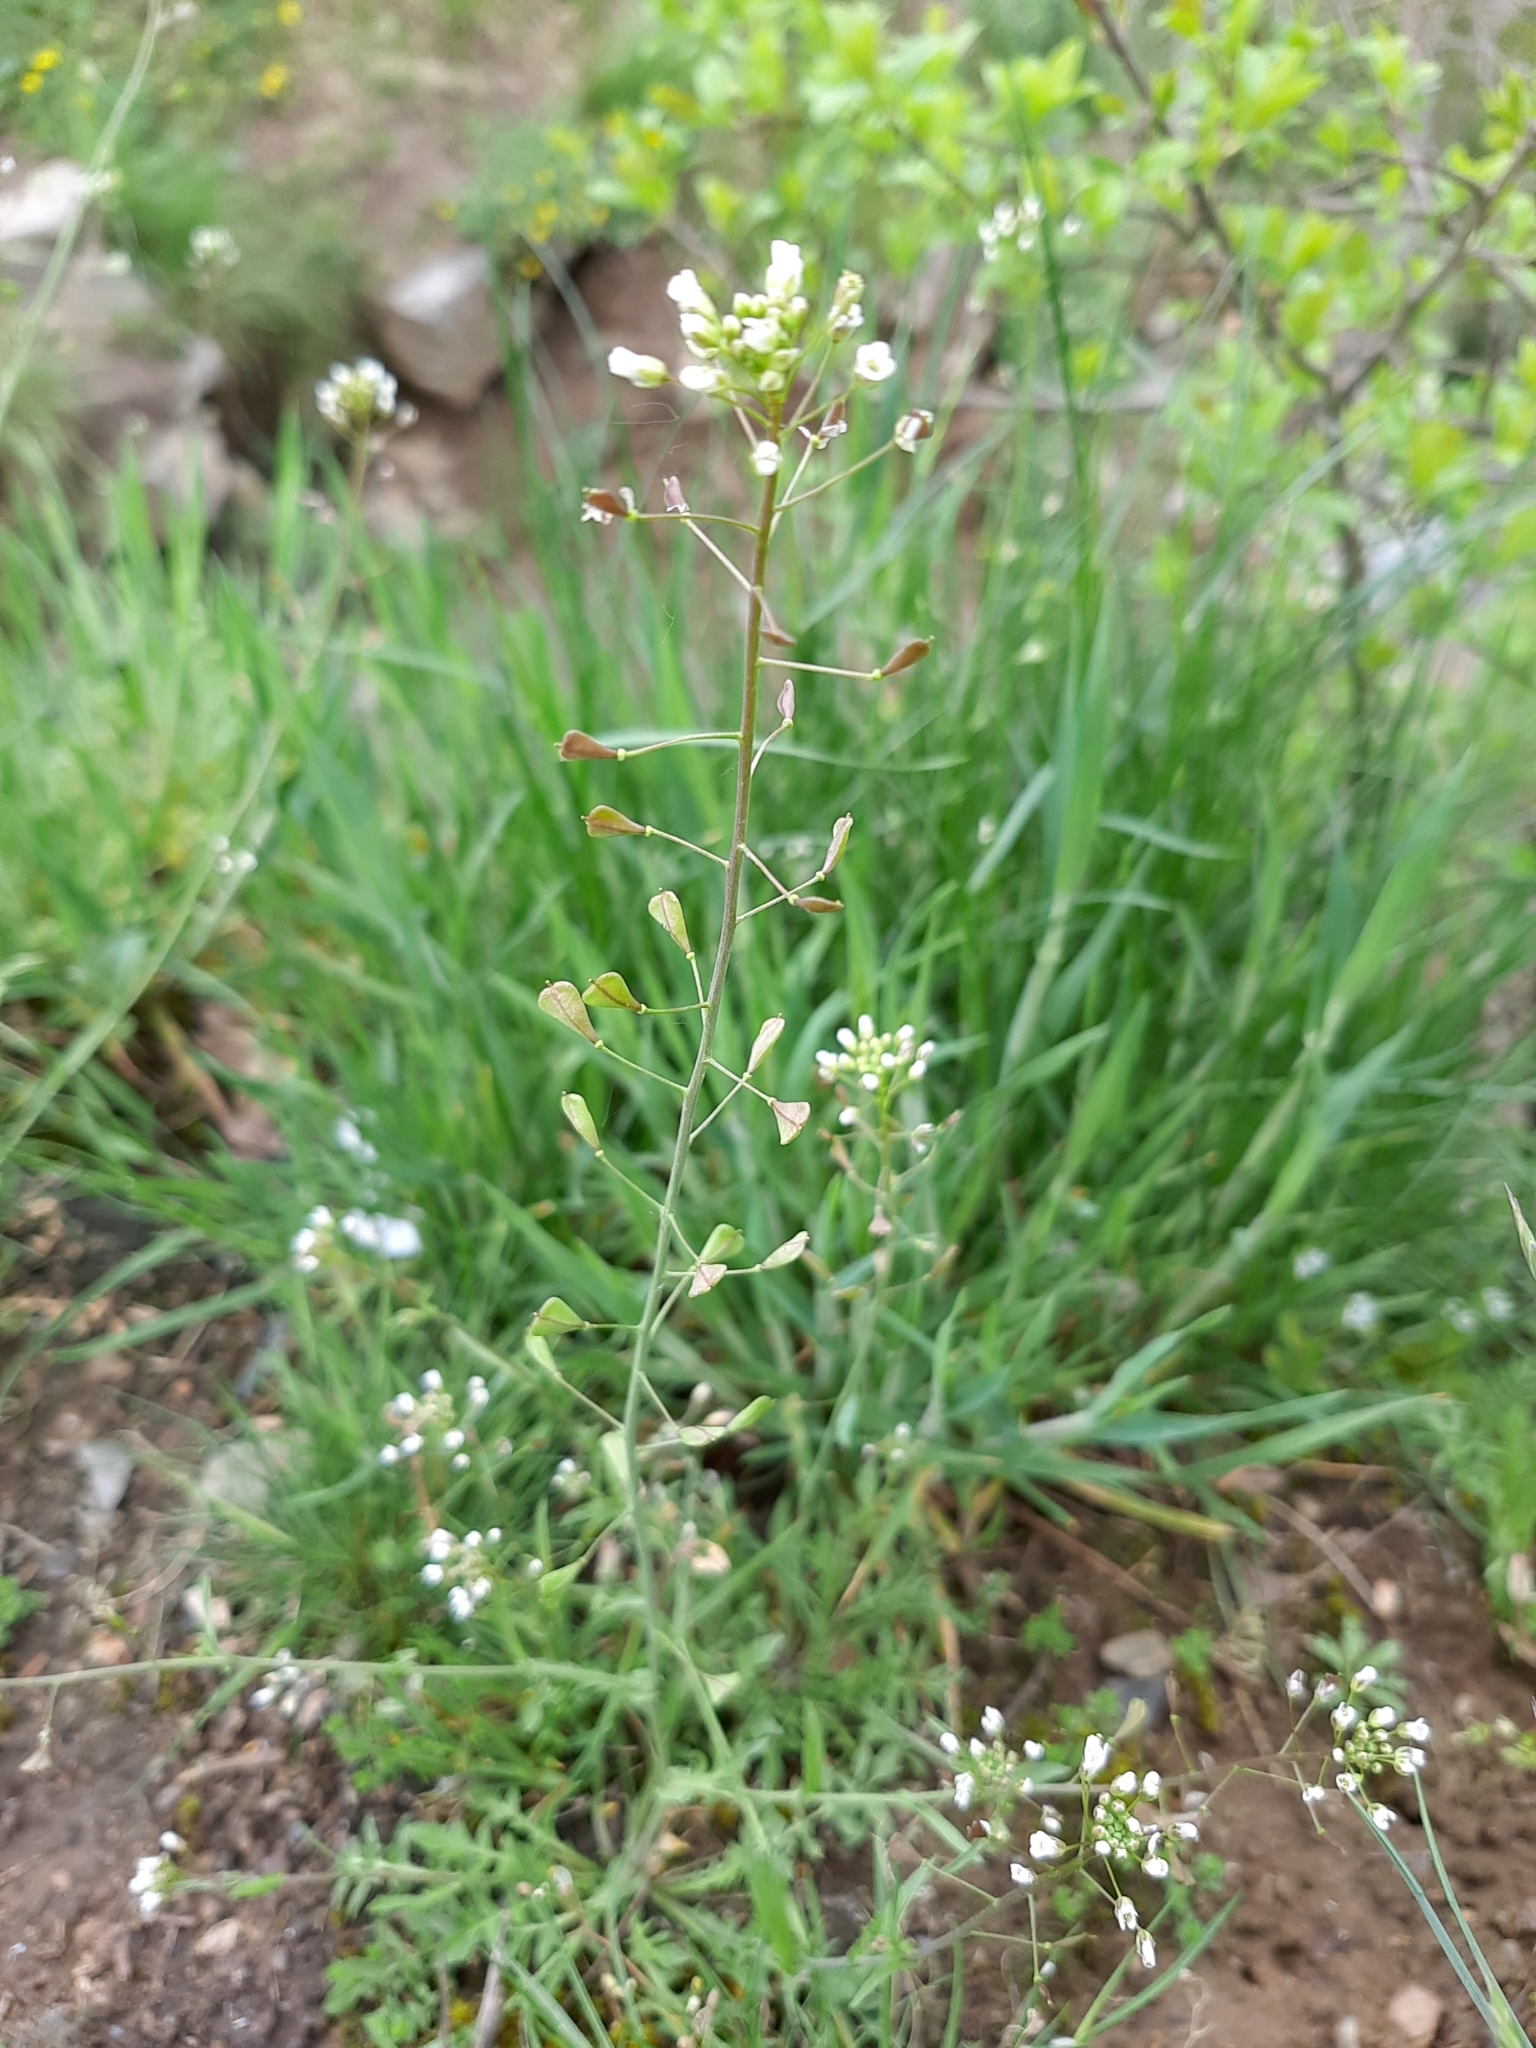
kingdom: Plantae
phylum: Tracheophyta
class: Magnoliopsida
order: Brassicales
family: Brassicaceae
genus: Capsella
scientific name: Capsella bursa-pastoris
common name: Shepherd's purse
